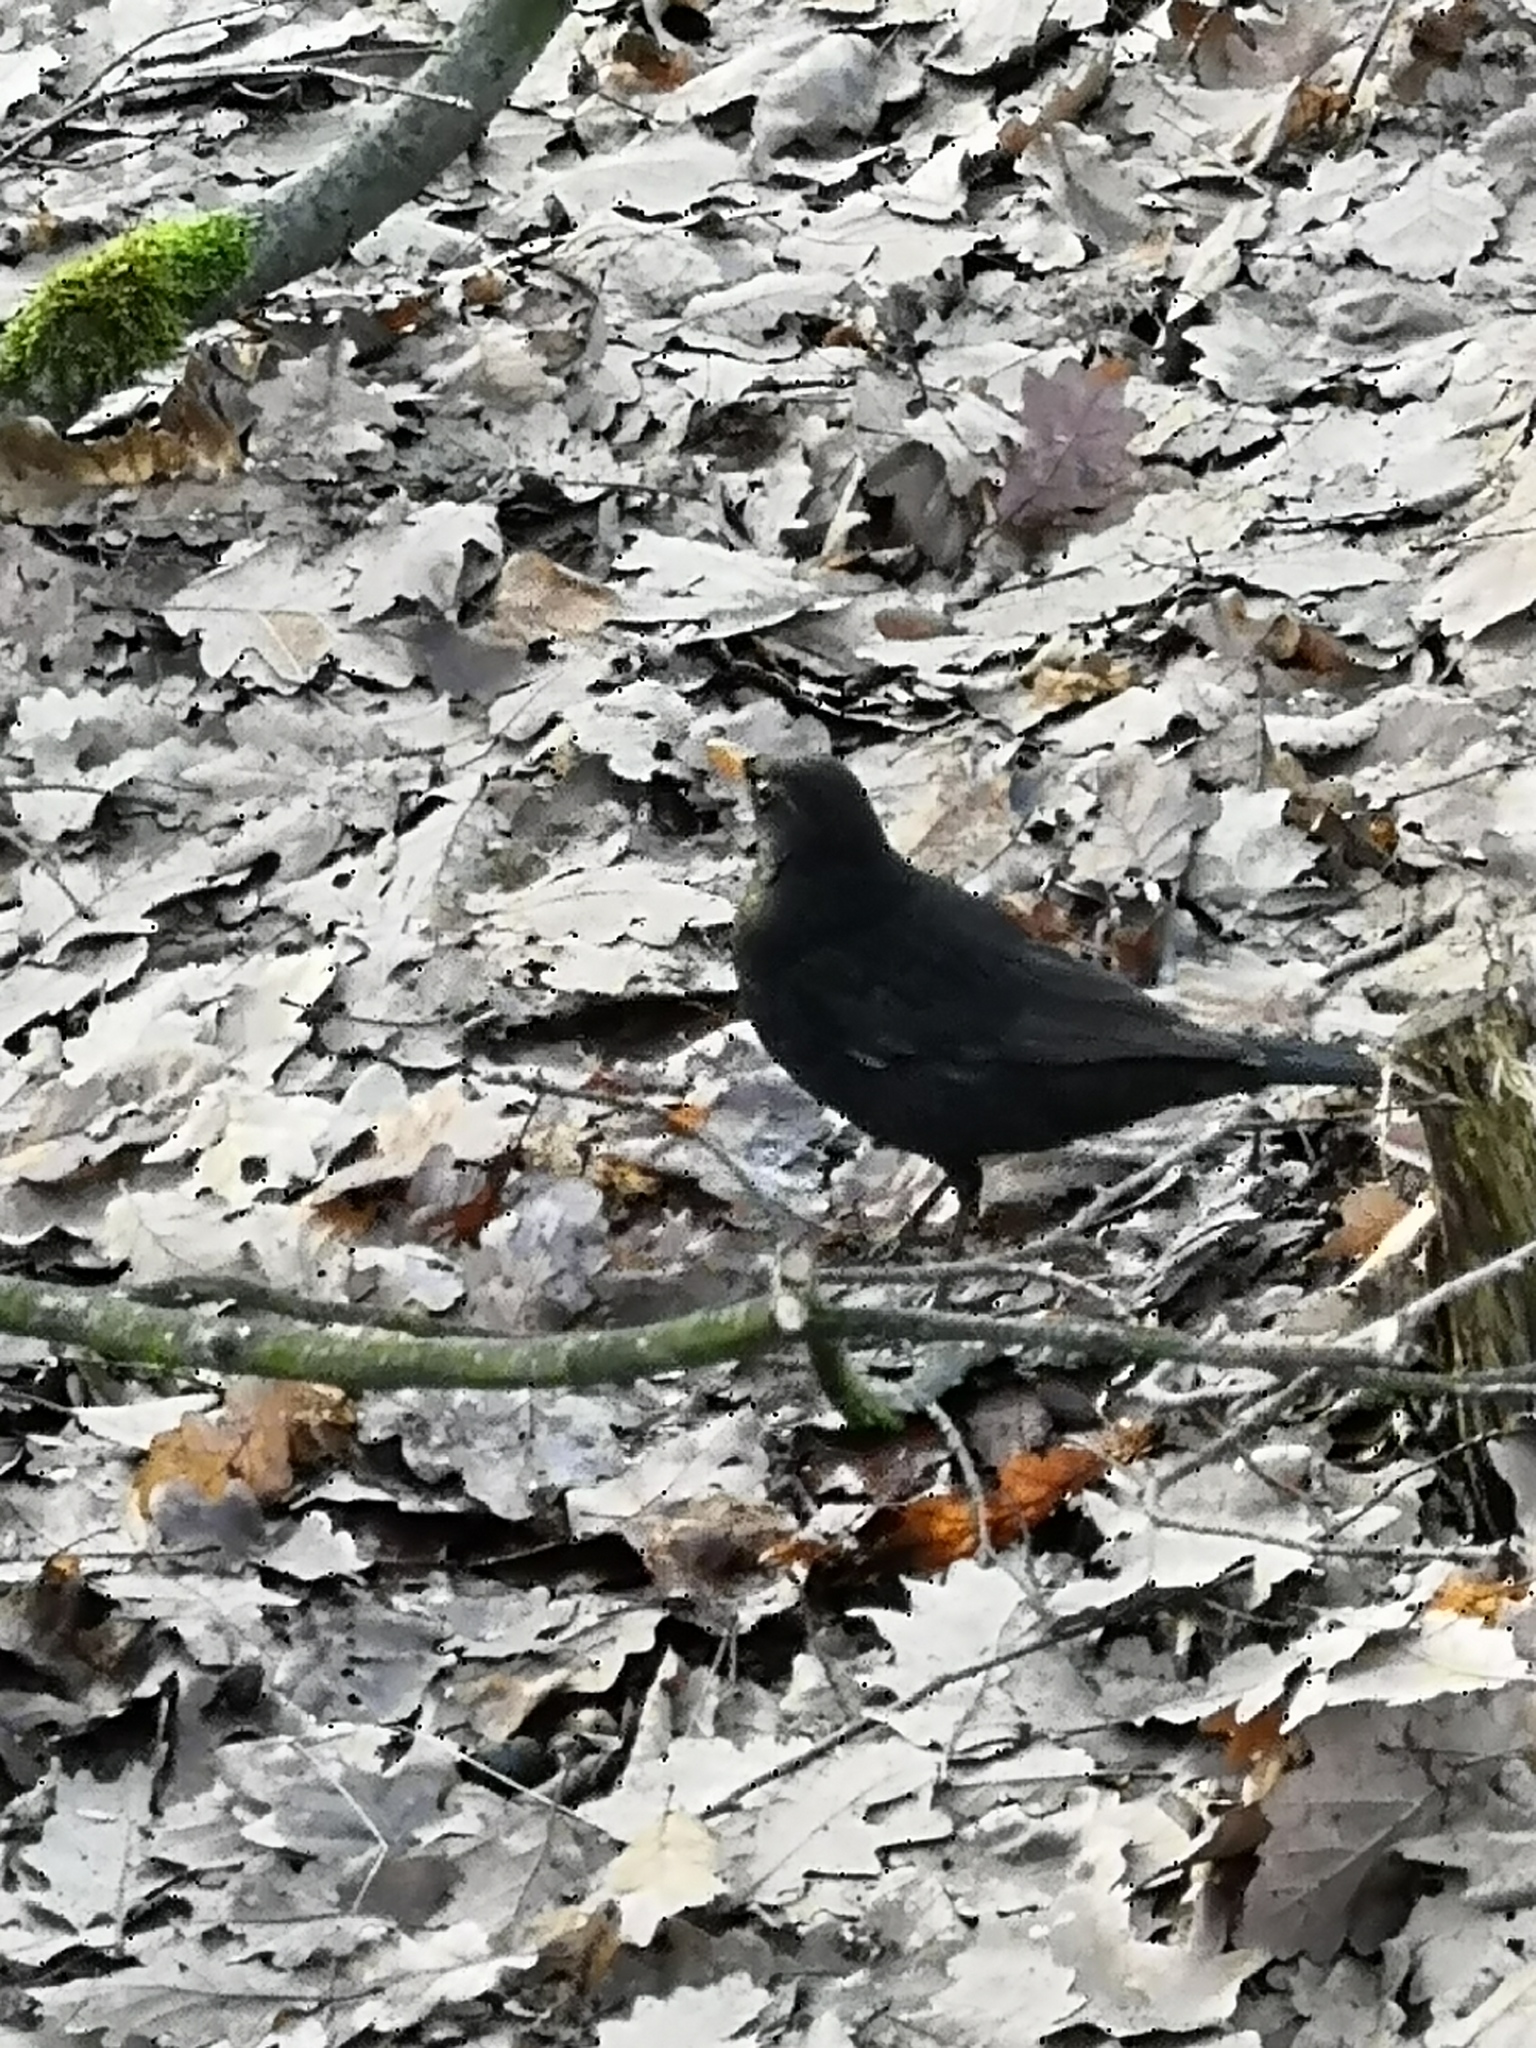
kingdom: Animalia
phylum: Chordata
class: Aves
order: Passeriformes
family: Turdidae
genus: Turdus
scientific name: Turdus merula
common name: Common blackbird
